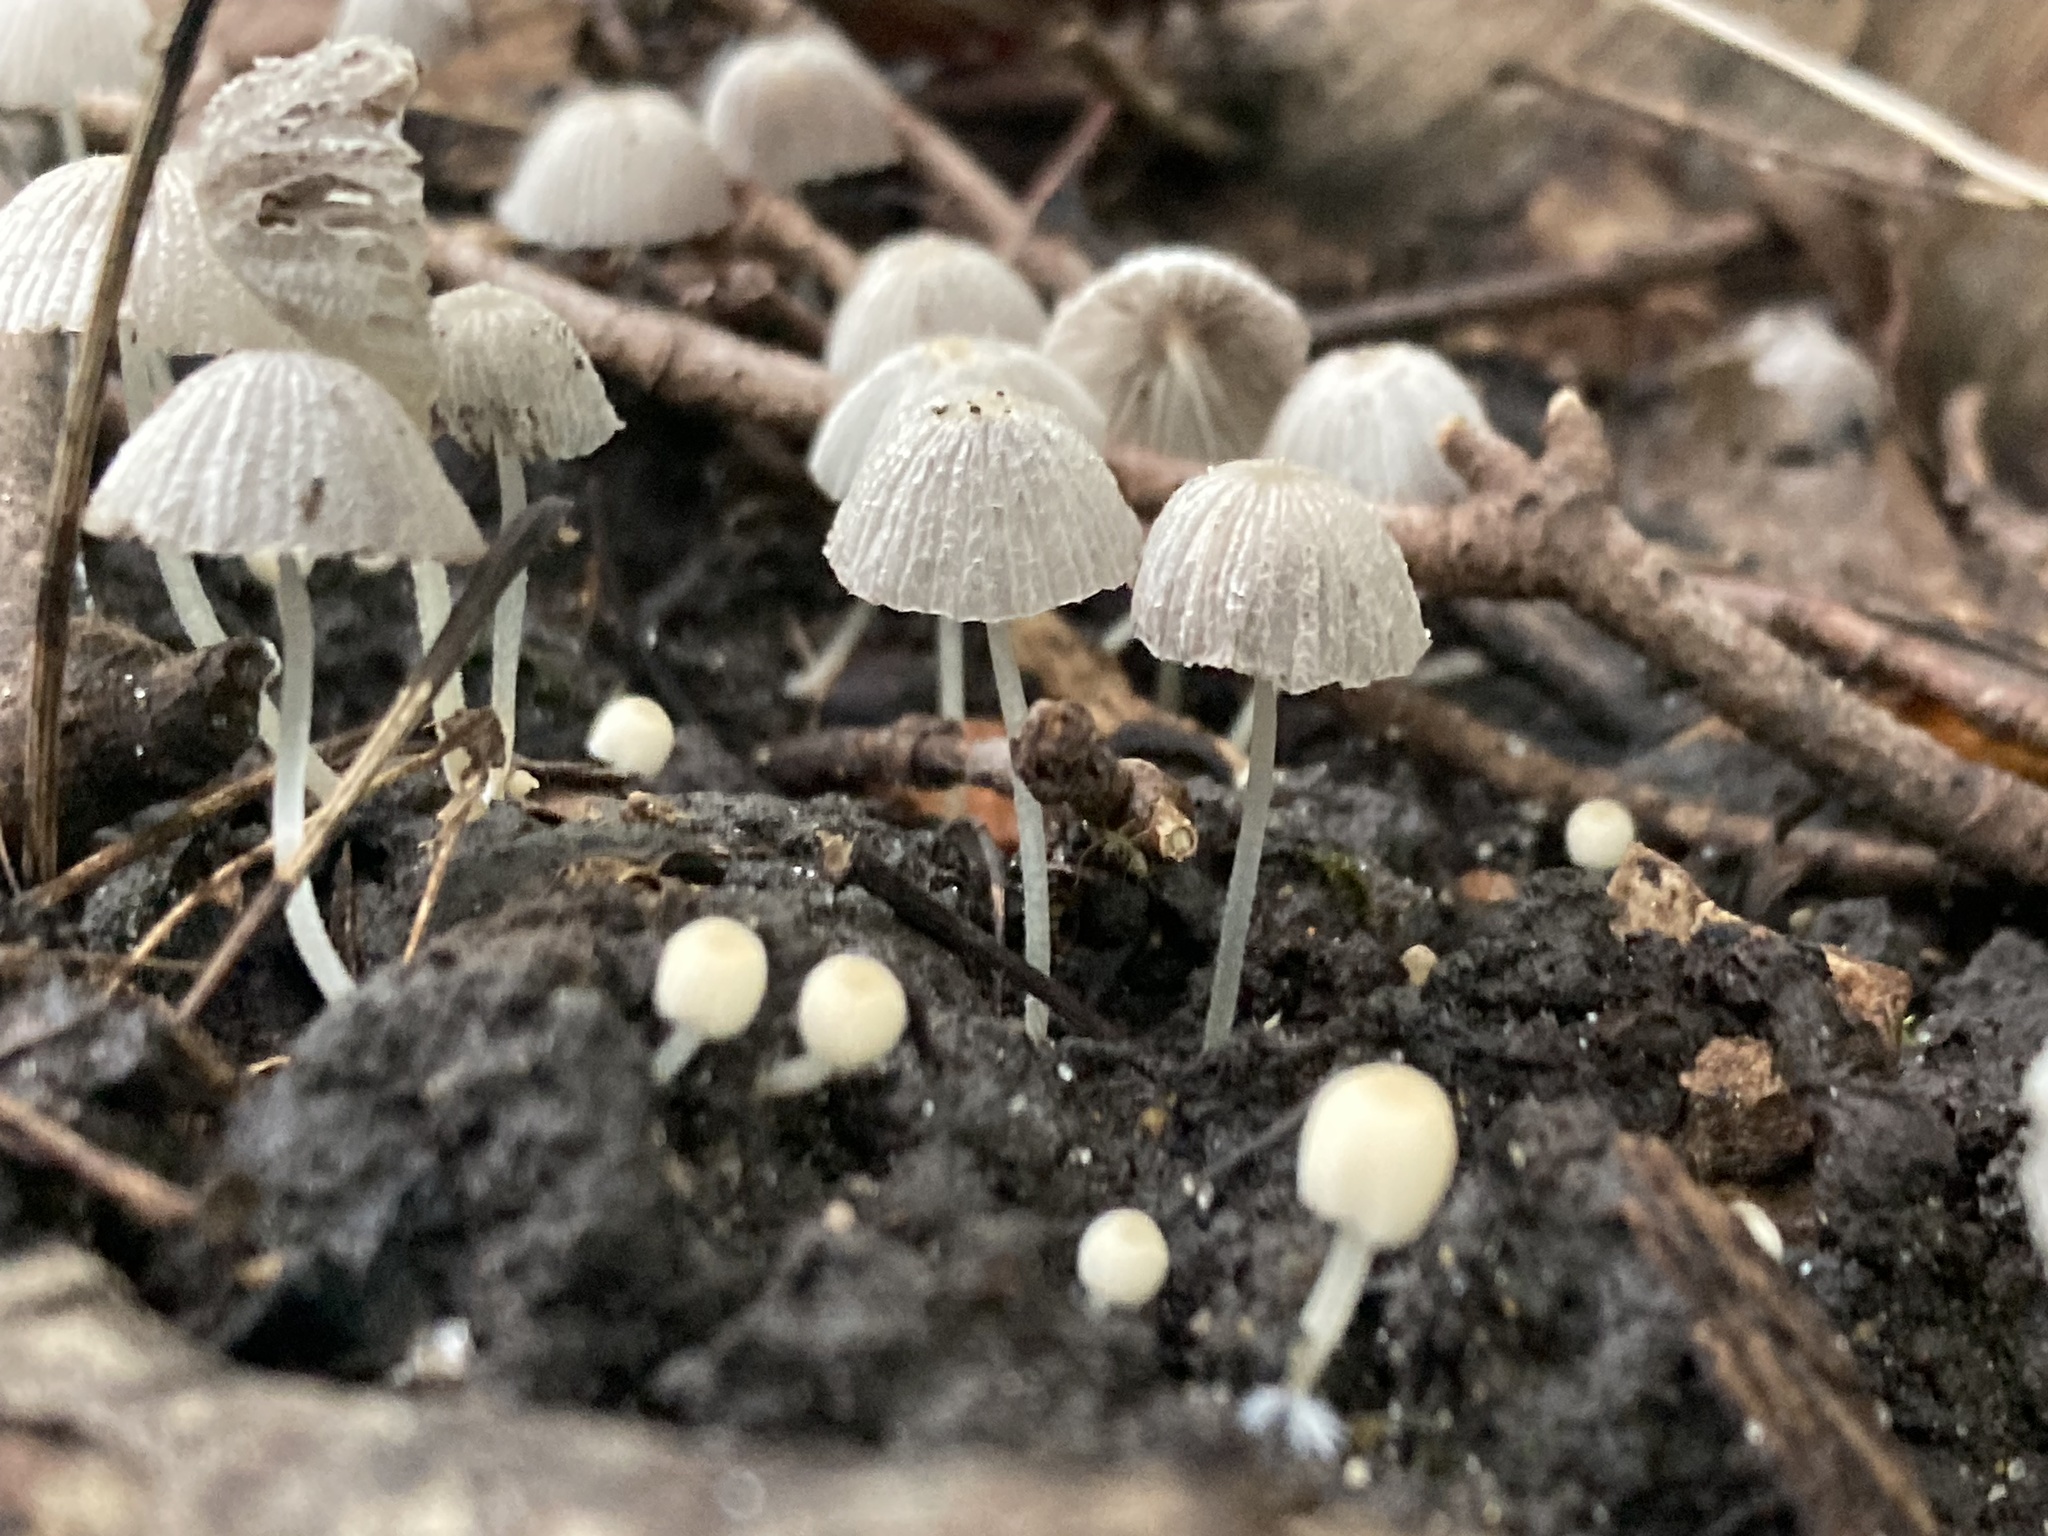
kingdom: Fungi
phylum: Basidiomycota
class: Agaricomycetes
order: Agaricales
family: Psathyrellaceae
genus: Coprinellus
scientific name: Coprinellus disseminatus
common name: Fairies' bonnets
